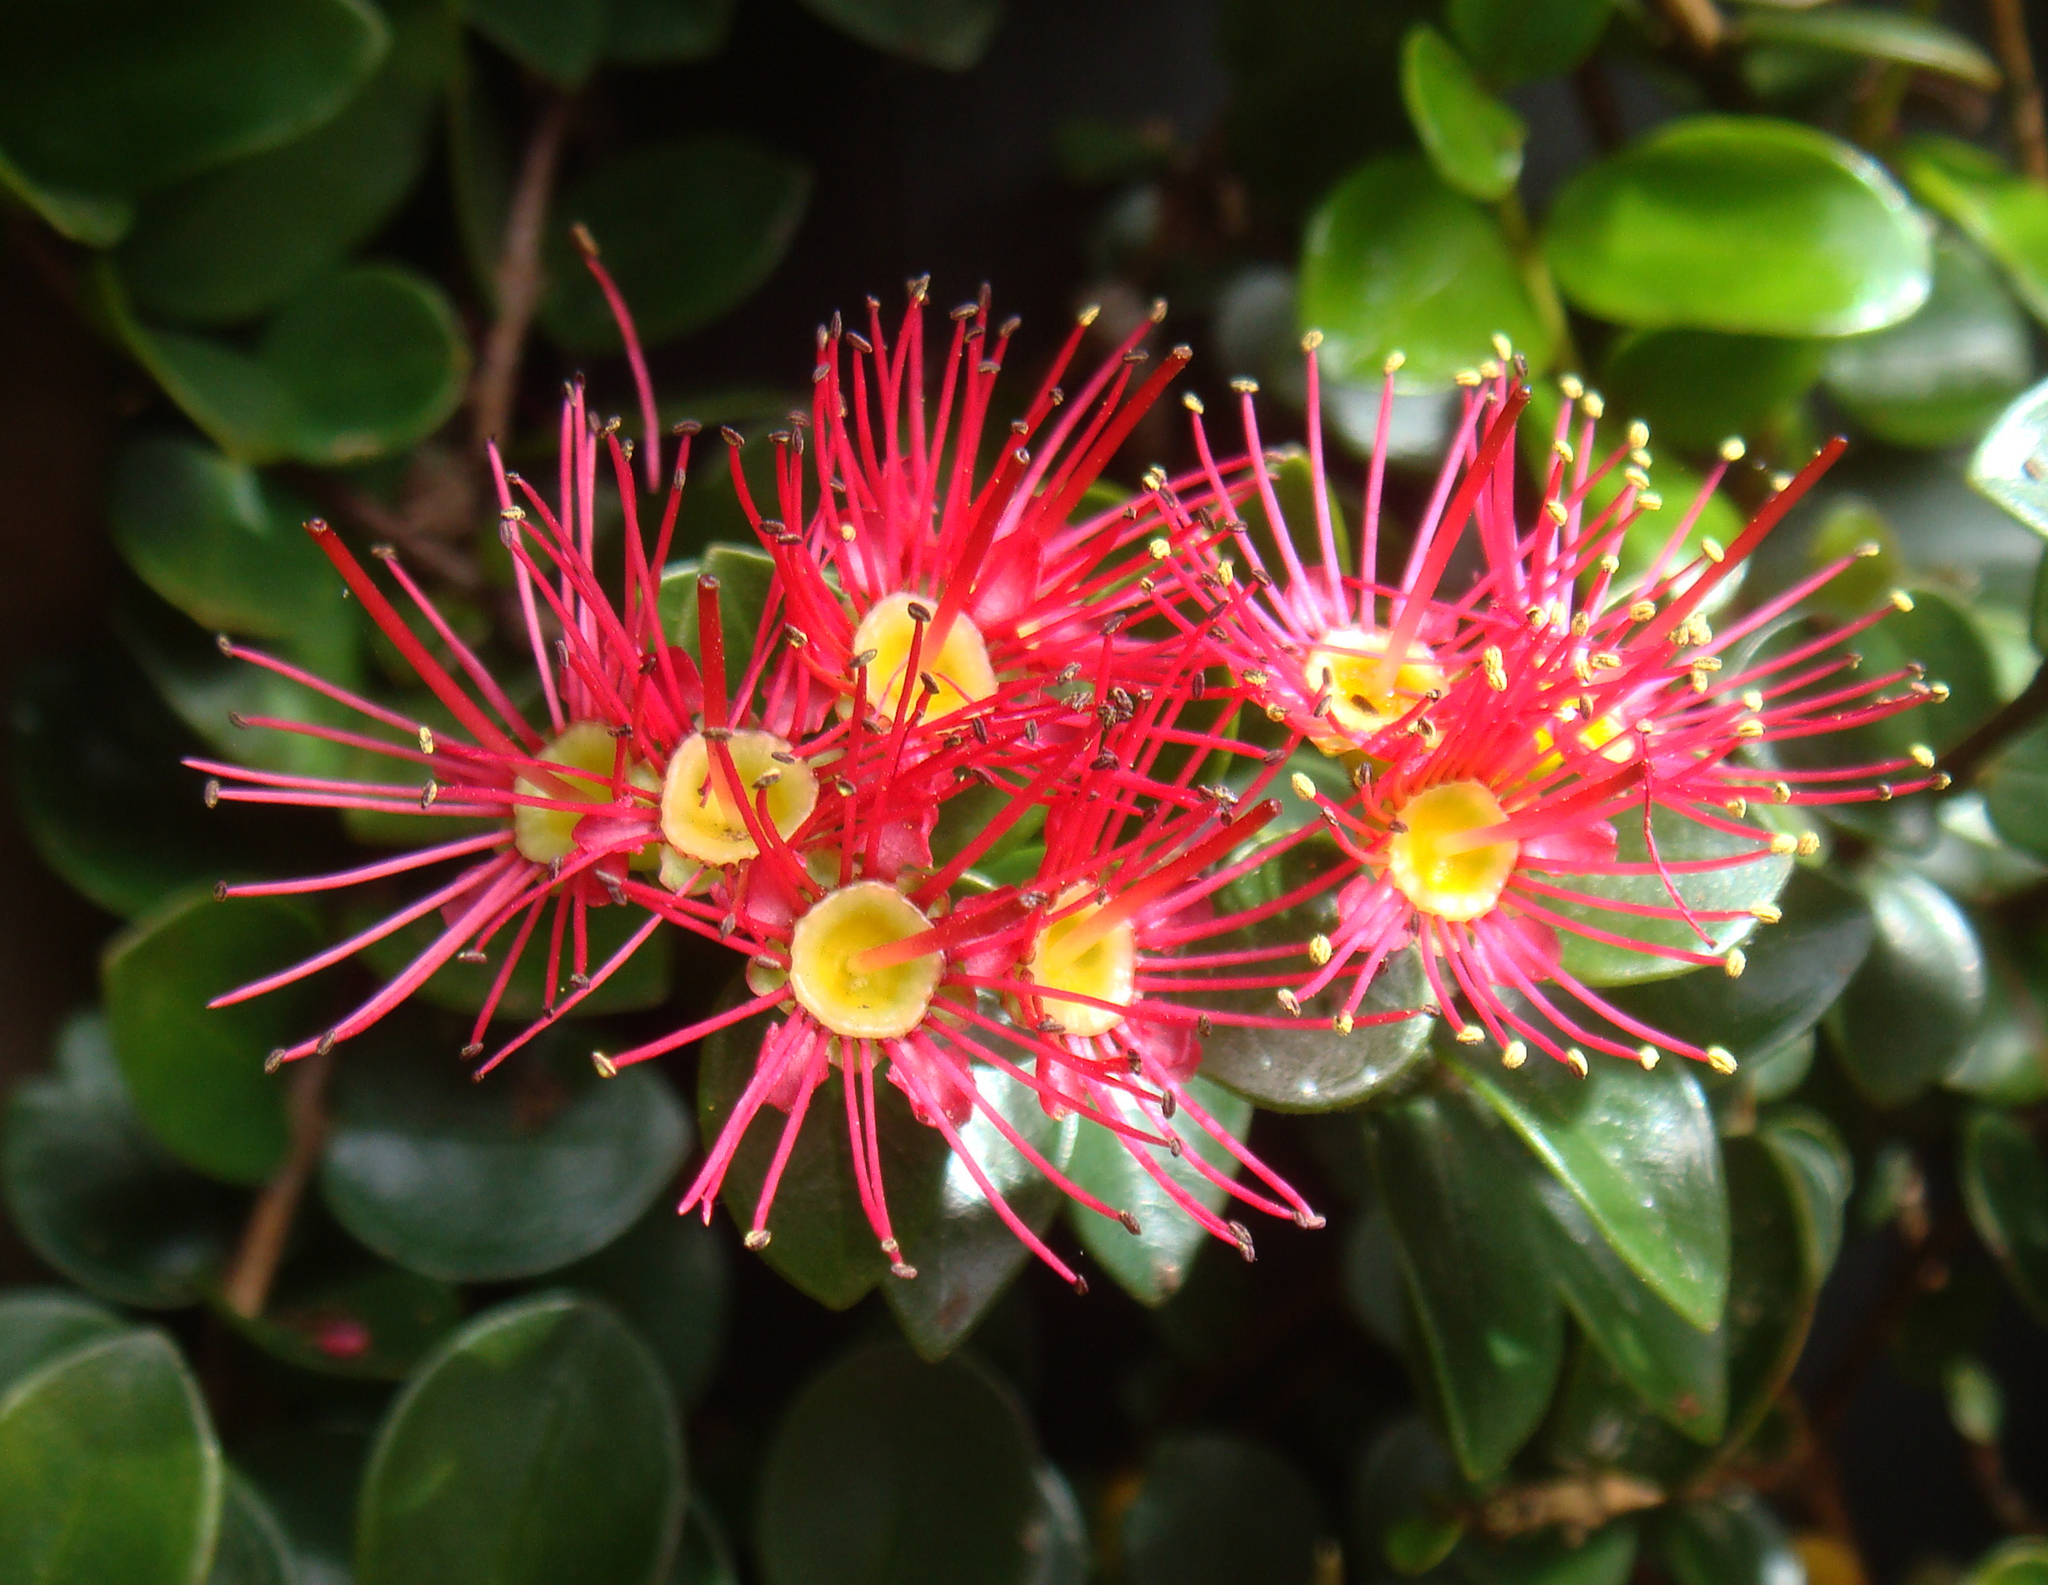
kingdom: Plantae
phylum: Tracheophyta
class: Magnoliopsida
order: Myrtales
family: Myrtaceae
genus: Metrosideros
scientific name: Metrosideros carminea
